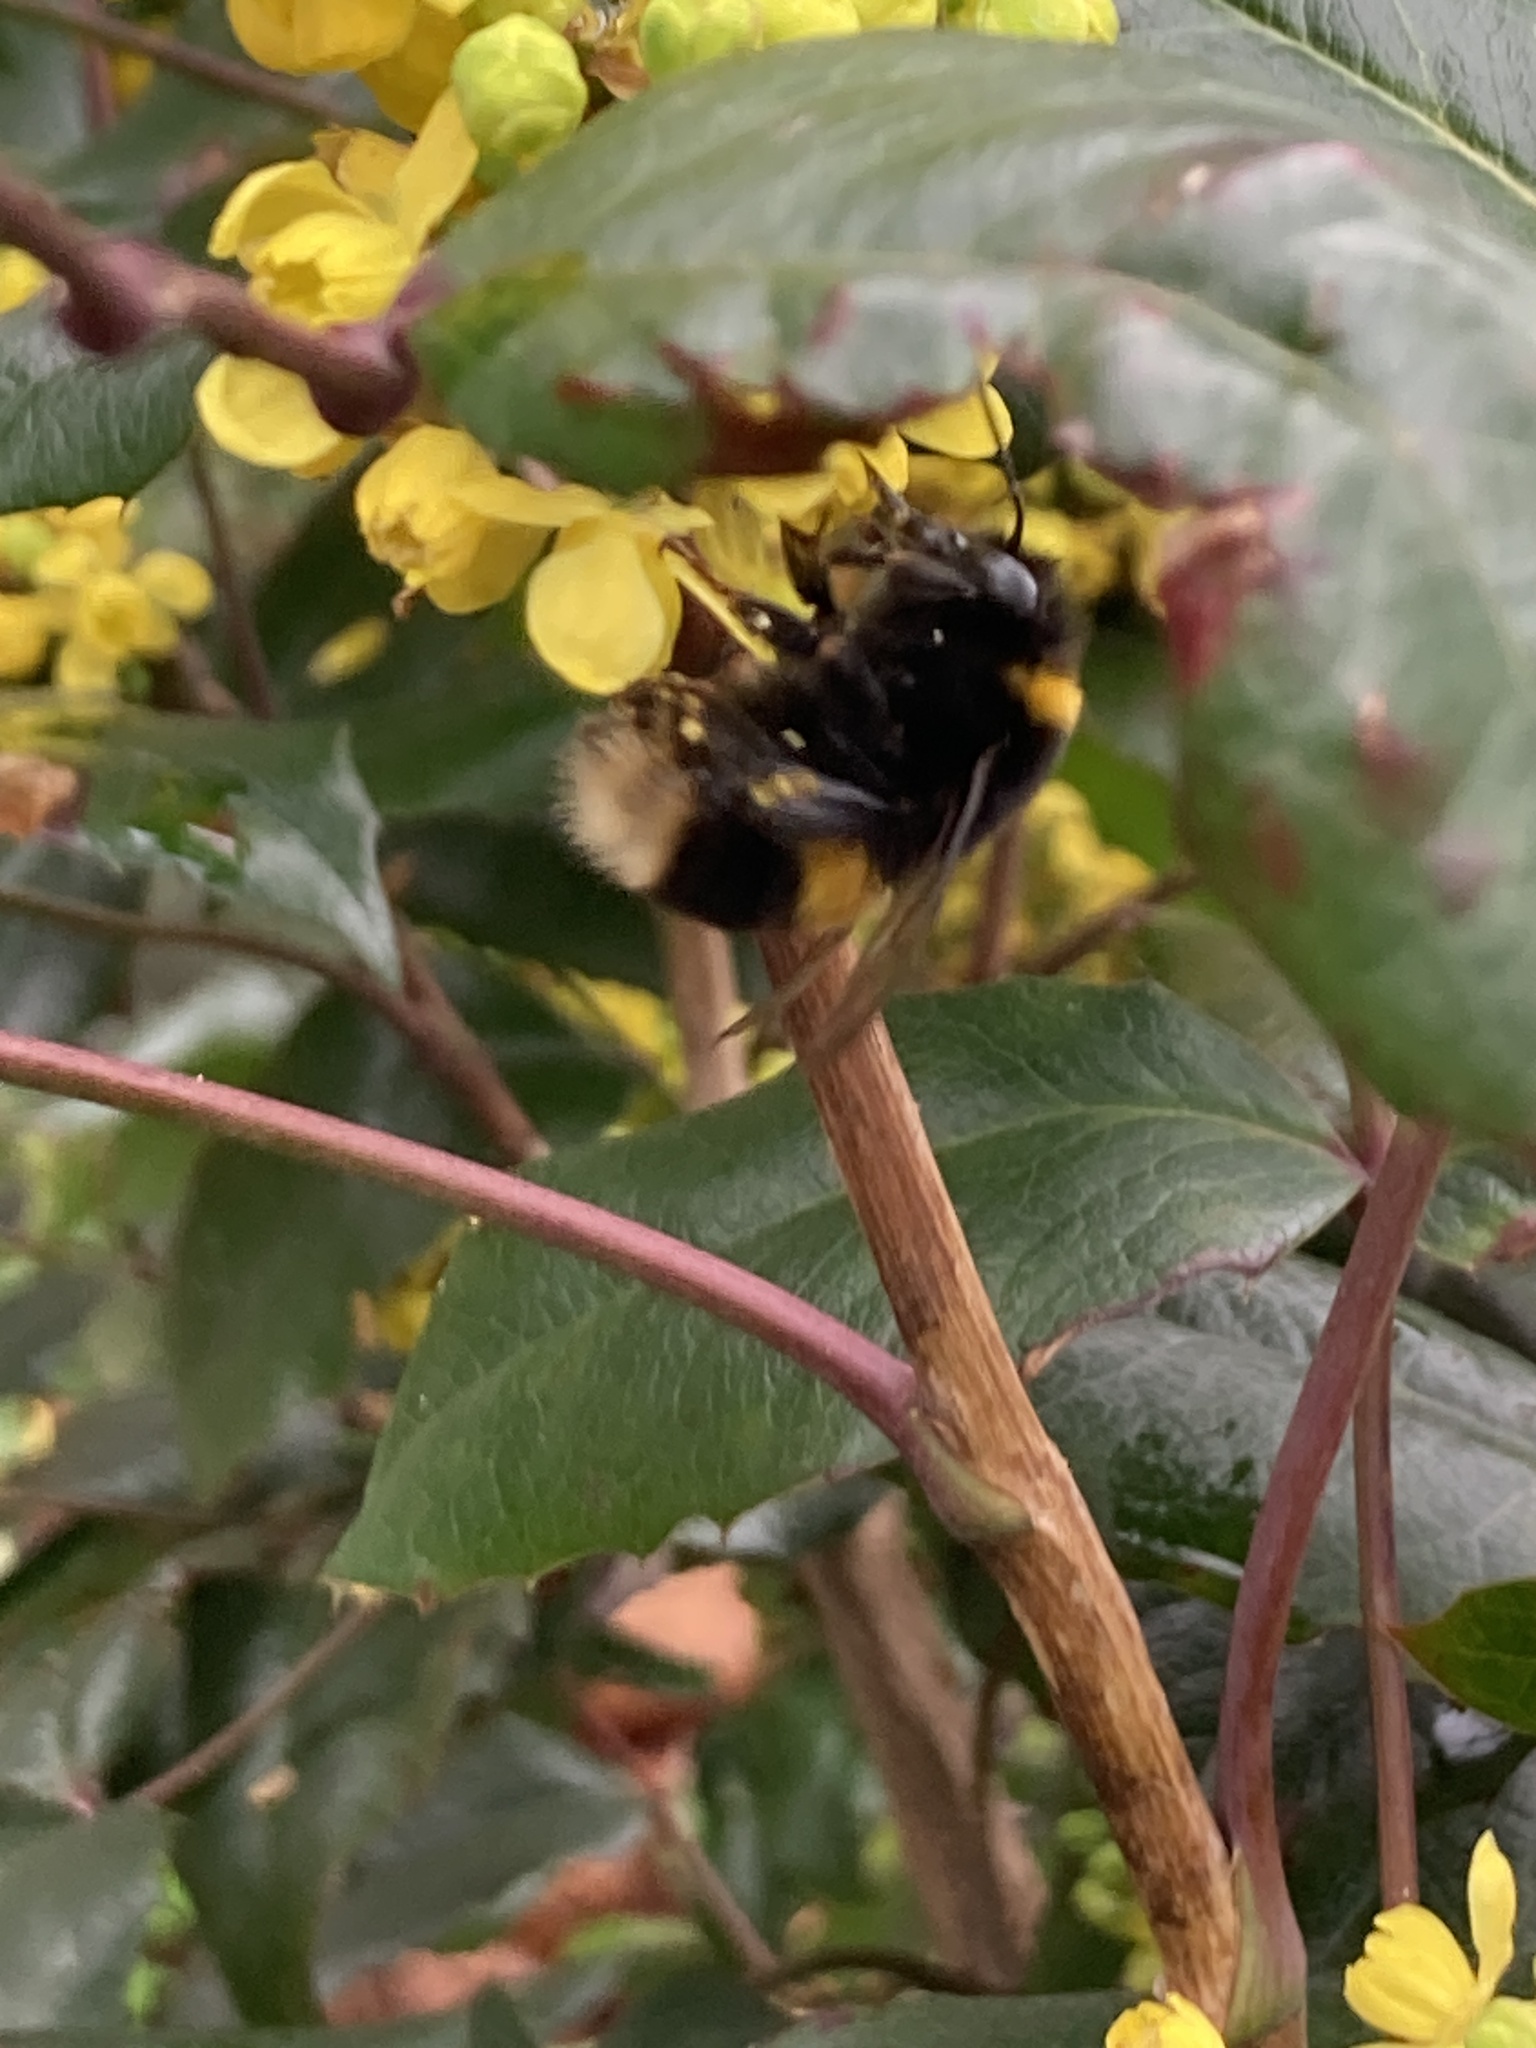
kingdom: Animalia
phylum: Arthropoda
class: Insecta
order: Hymenoptera
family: Apidae
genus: Bombus
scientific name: Bombus terrestris
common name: Buff-tailed bumblebee
